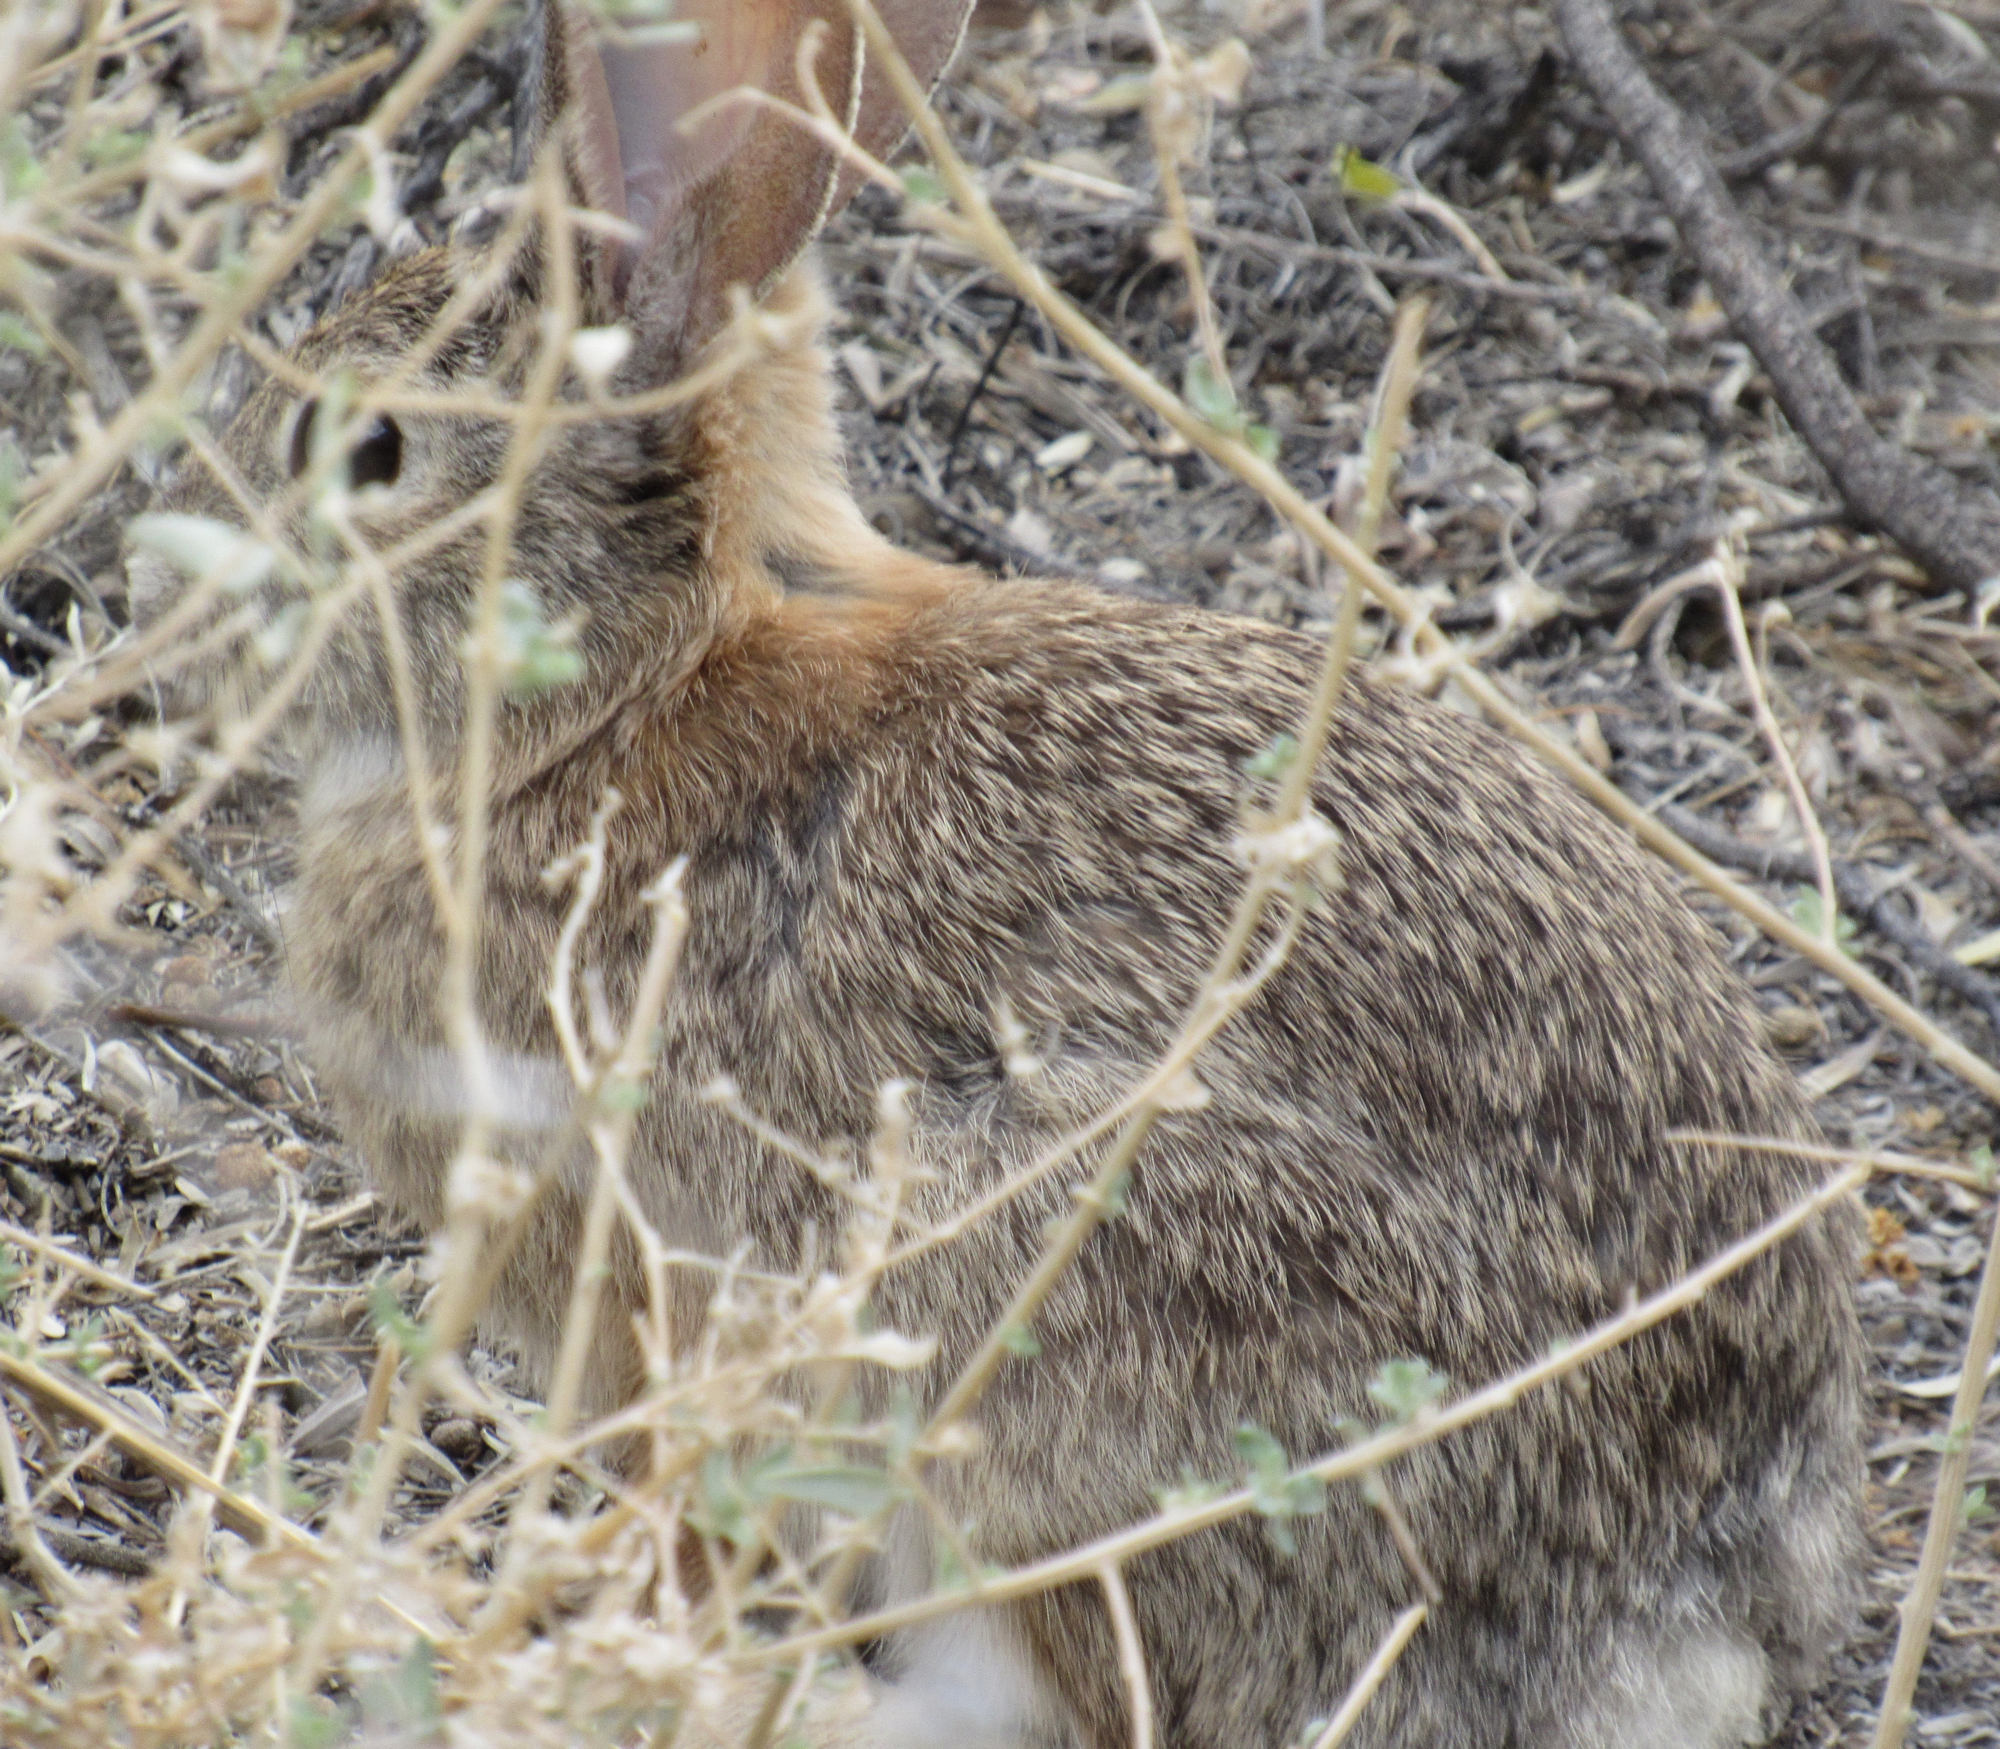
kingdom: Animalia
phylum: Chordata
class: Mammalia
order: Lagomorpha
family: Leporidae
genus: Sylvilagus
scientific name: Sylvilagus audubonii
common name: Desert cottontail
